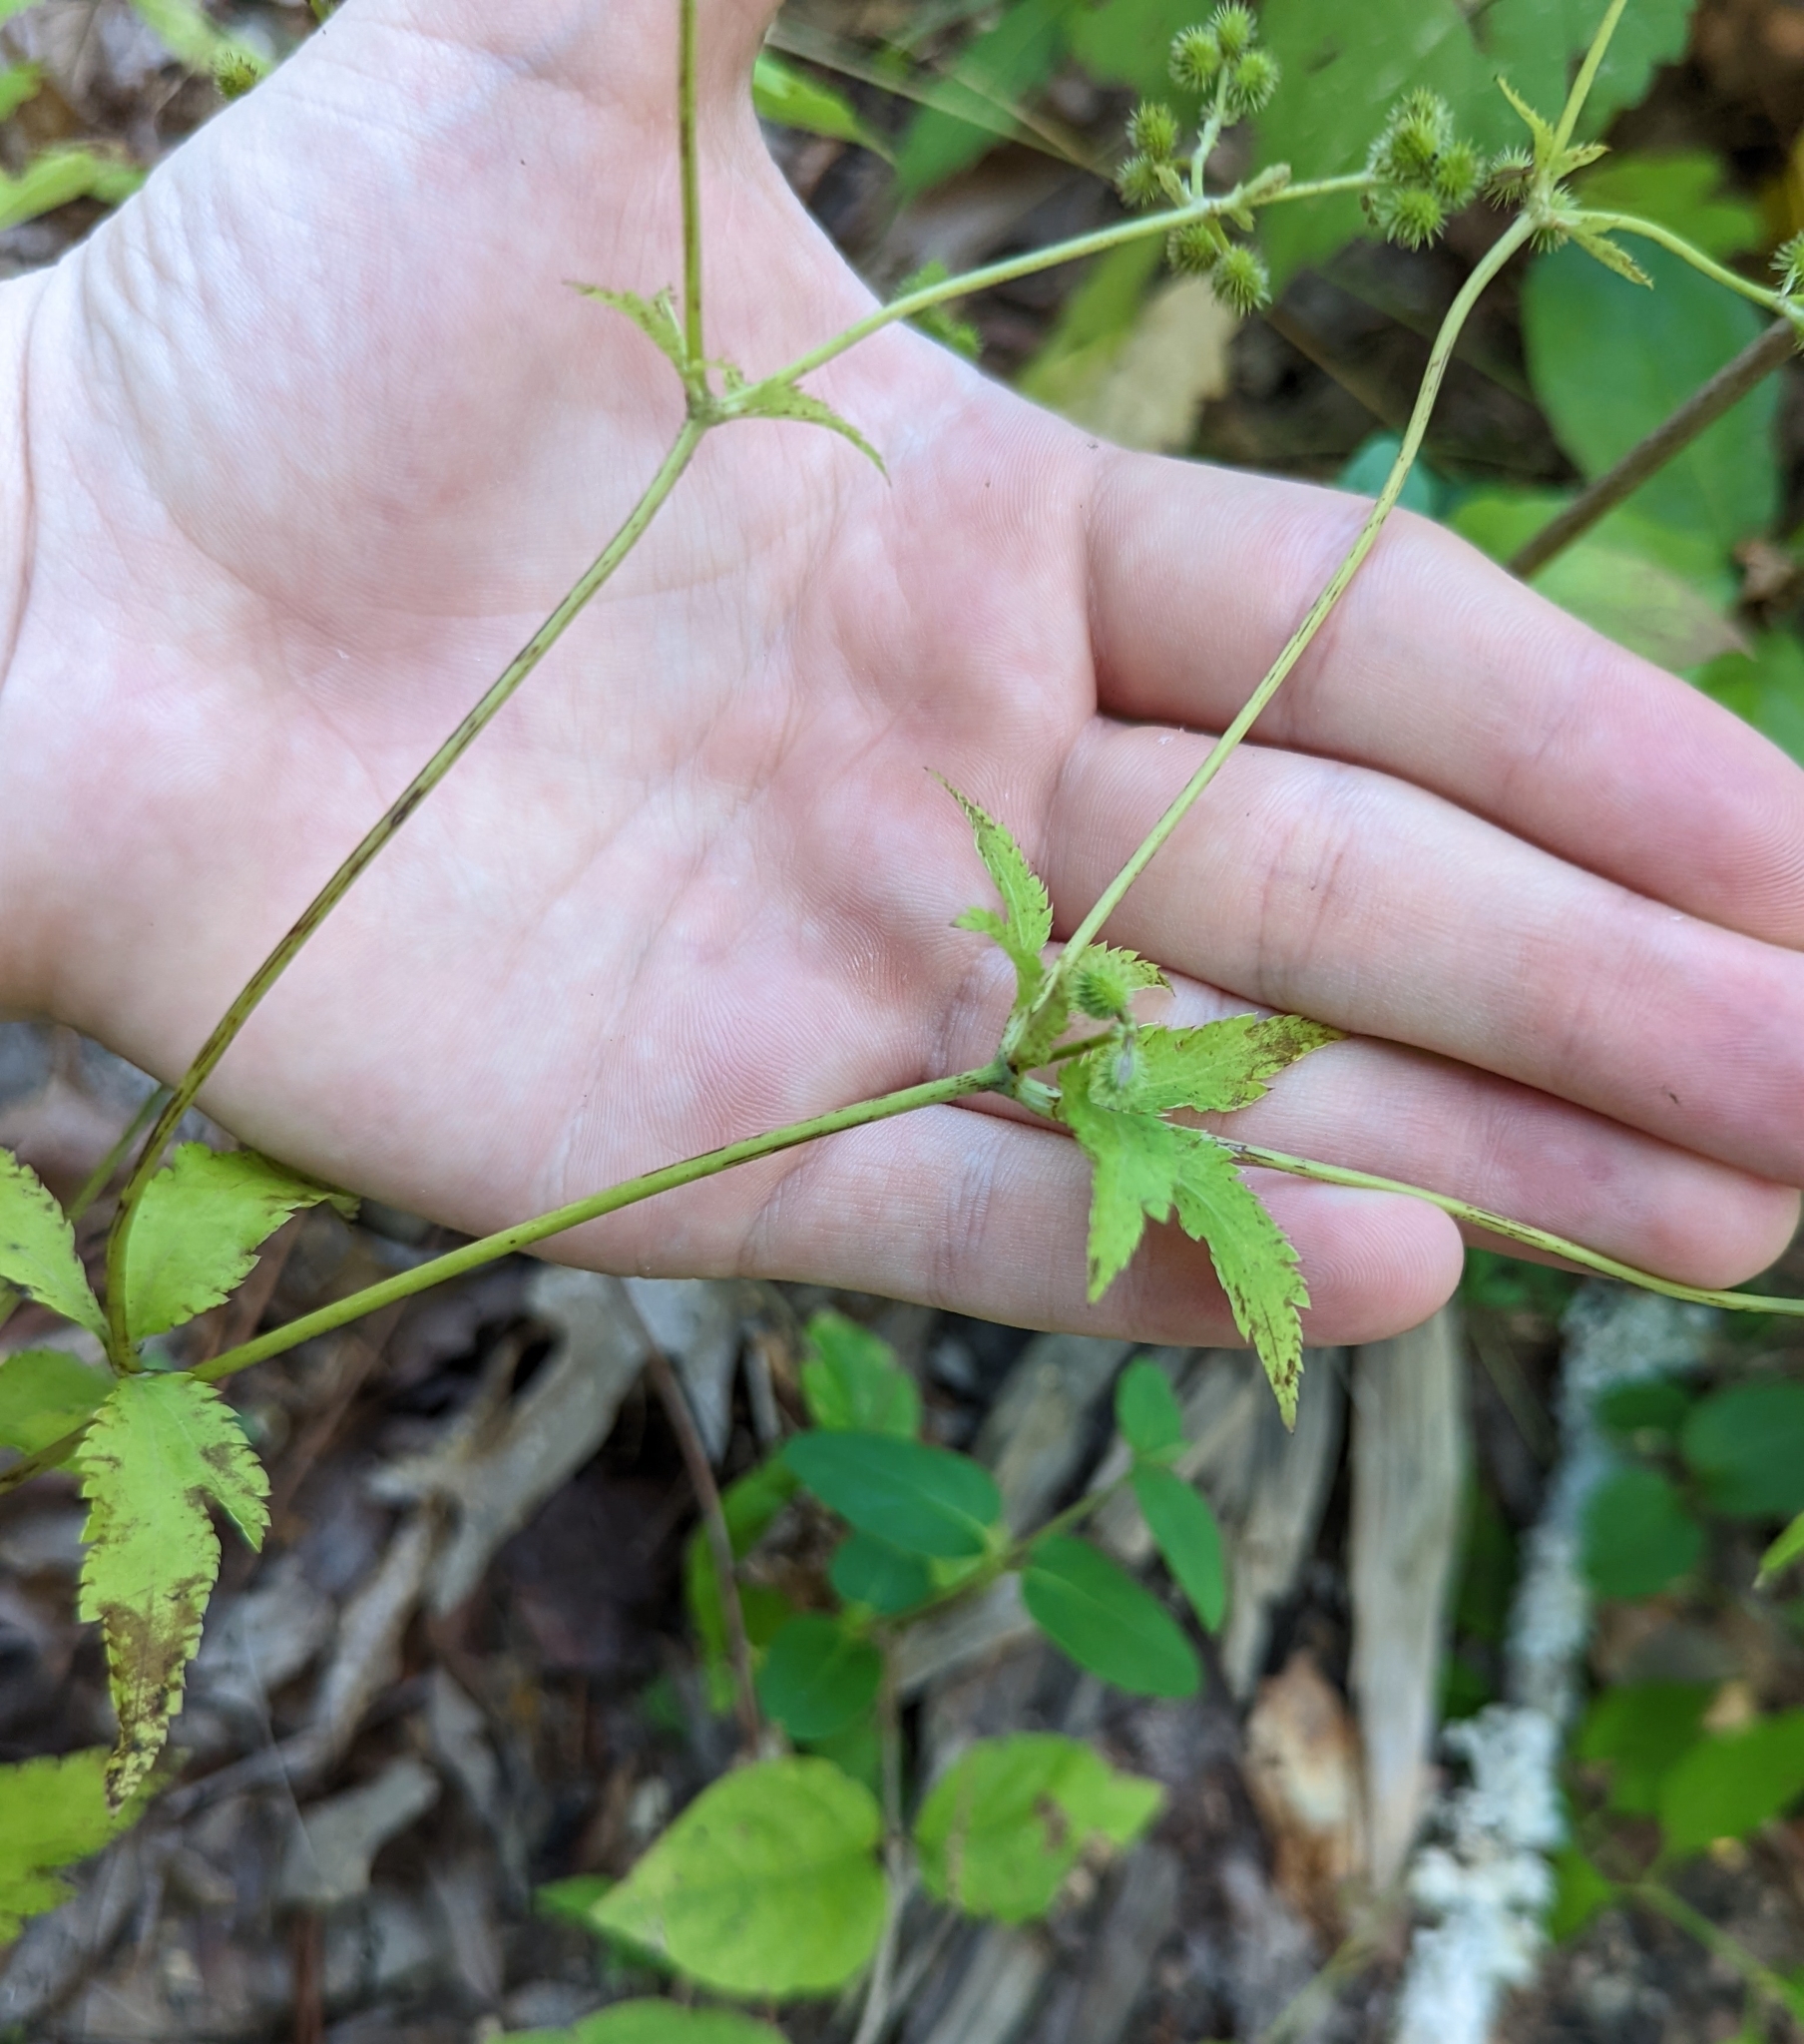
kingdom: Plantae
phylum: Tracheophyta
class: Magnoliopsida
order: Apiales
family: Apiaceae
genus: Sanicula
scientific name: Sanicula canadensis
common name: Canada sanicle
